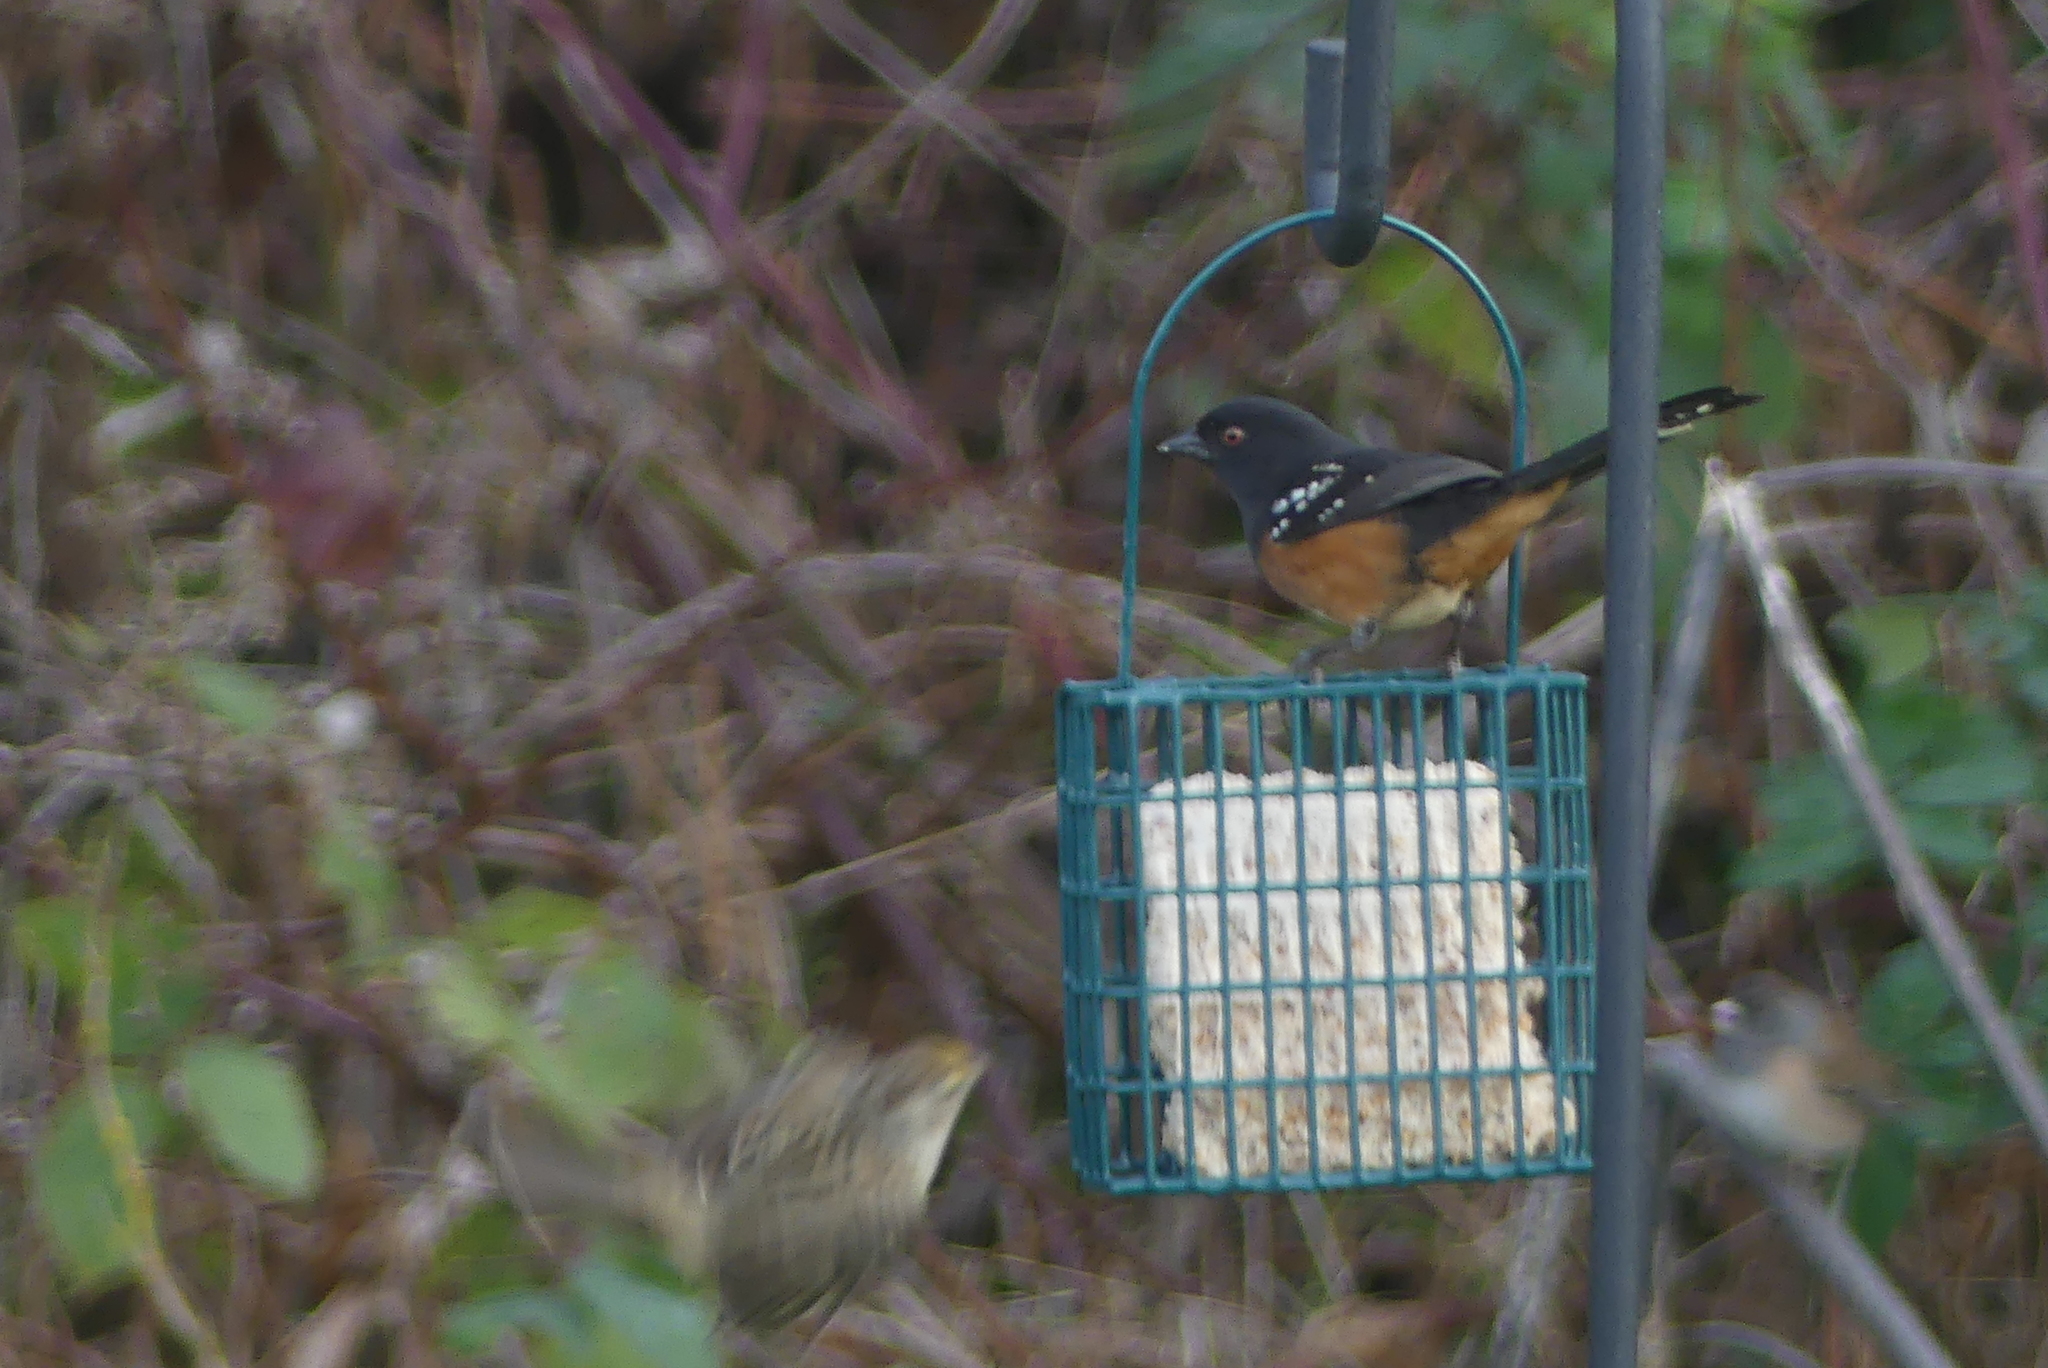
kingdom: Animalia
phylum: Chordata
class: Aves
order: Passeriformes
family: Passerellidae
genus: Pipilo
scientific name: Pipilo maculatus
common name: Spotted towhee
